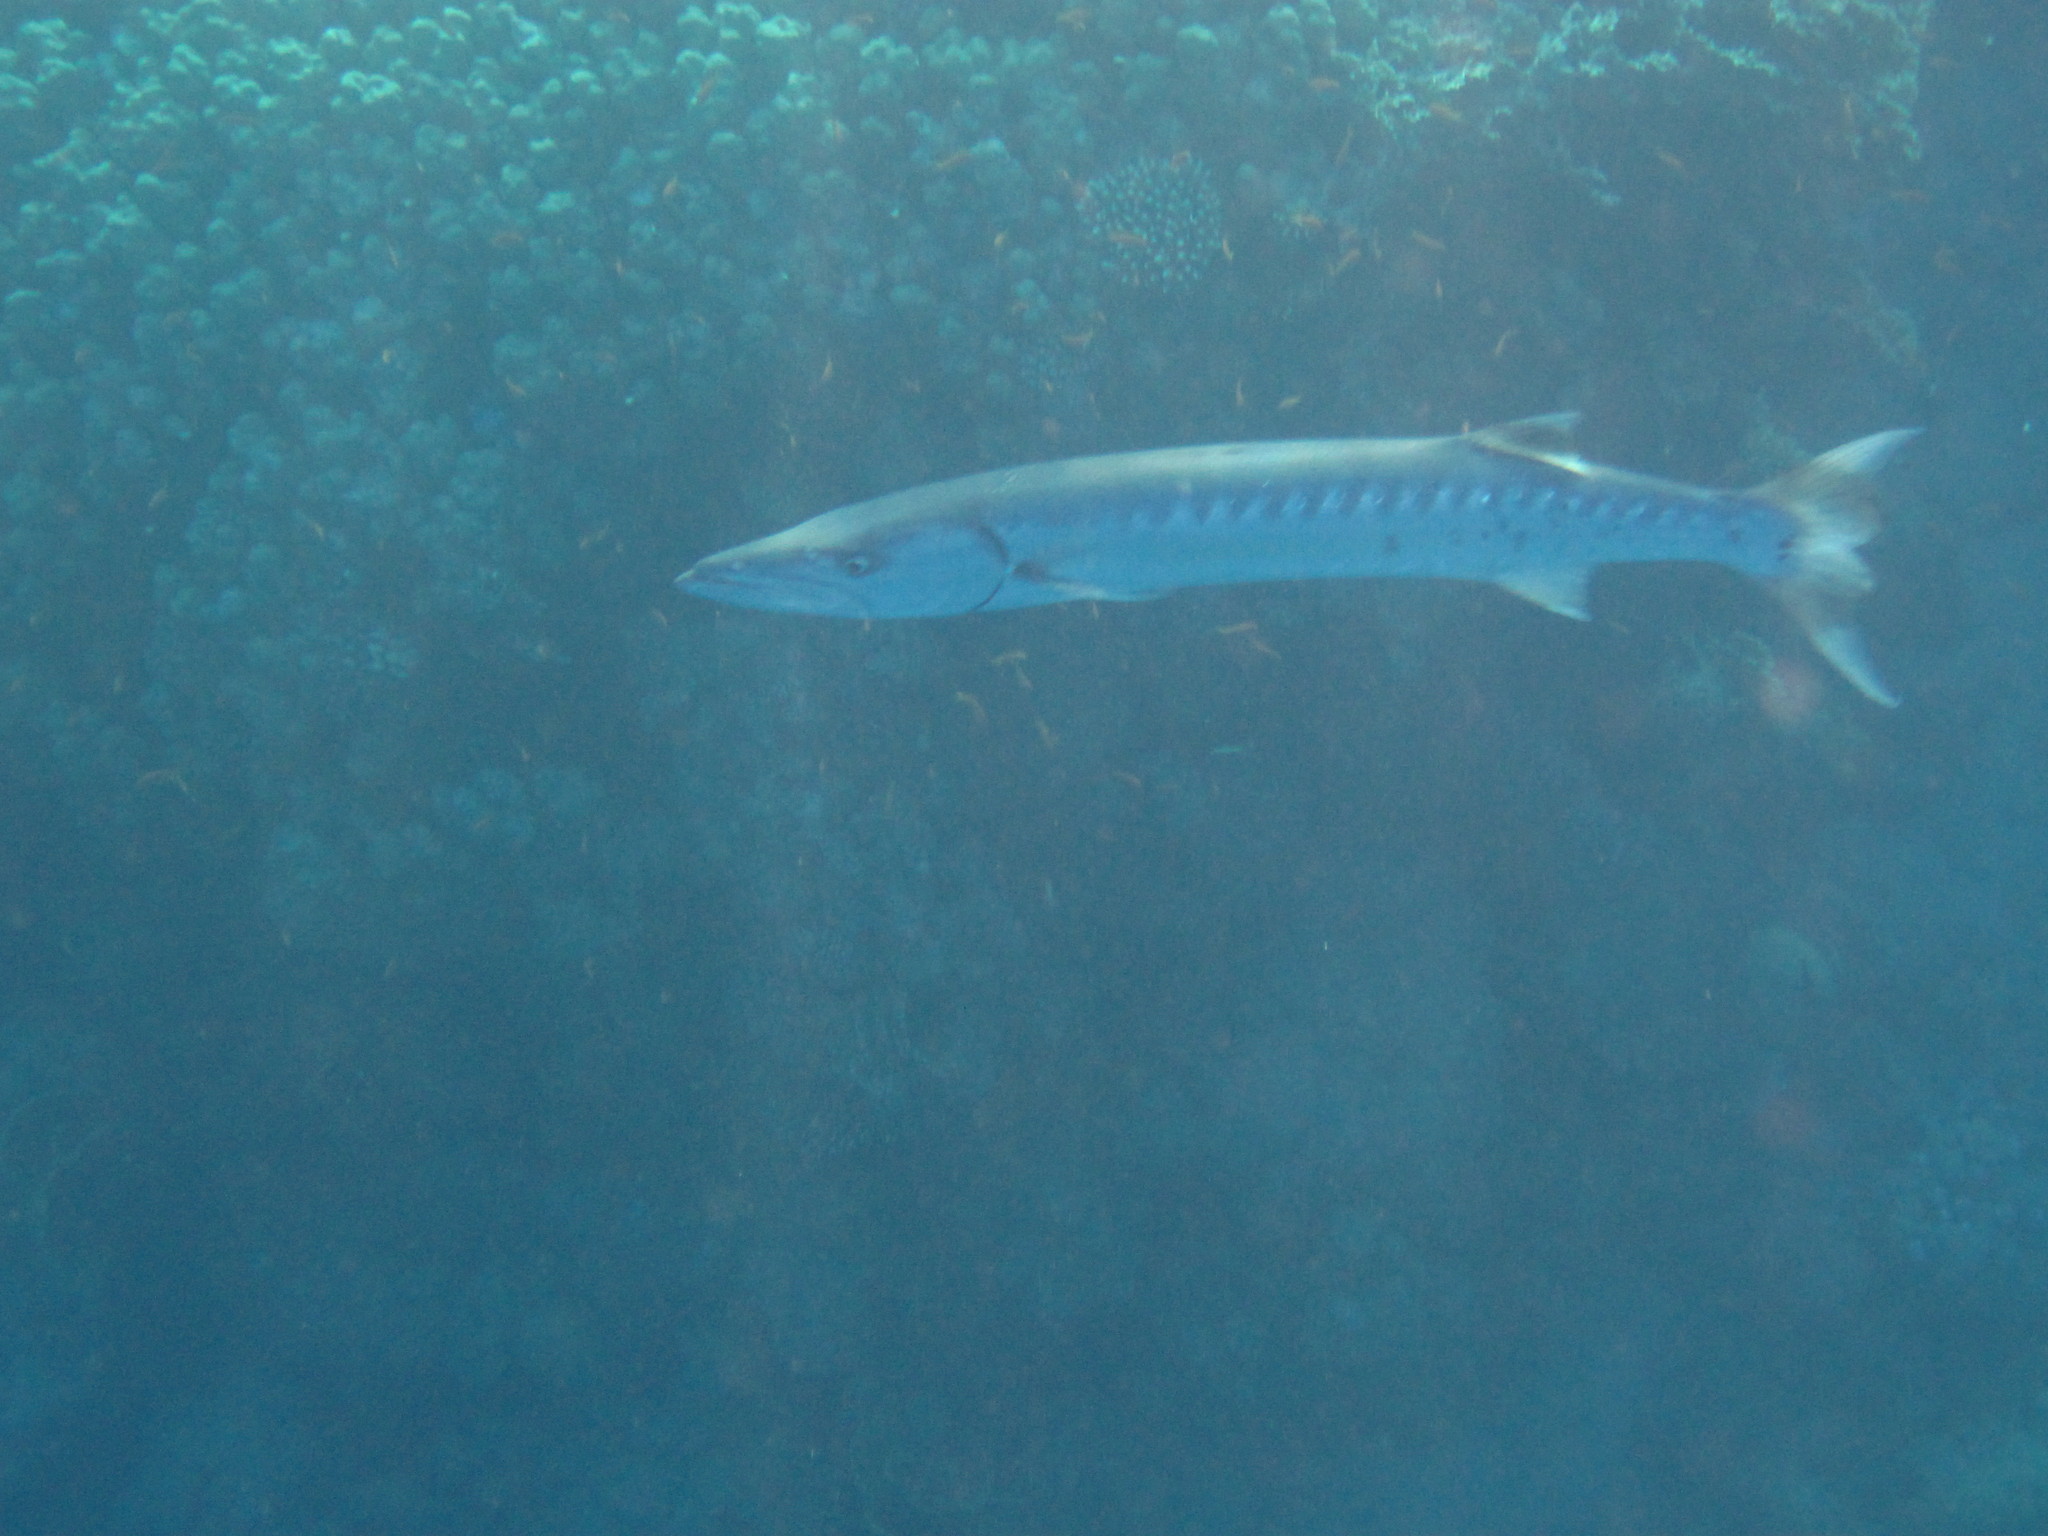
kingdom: Animalia
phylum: Chordata
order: Perciformes
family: Sphyraenidae
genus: Sphyraena
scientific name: Sphyraena barracuda
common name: Great barracuda
